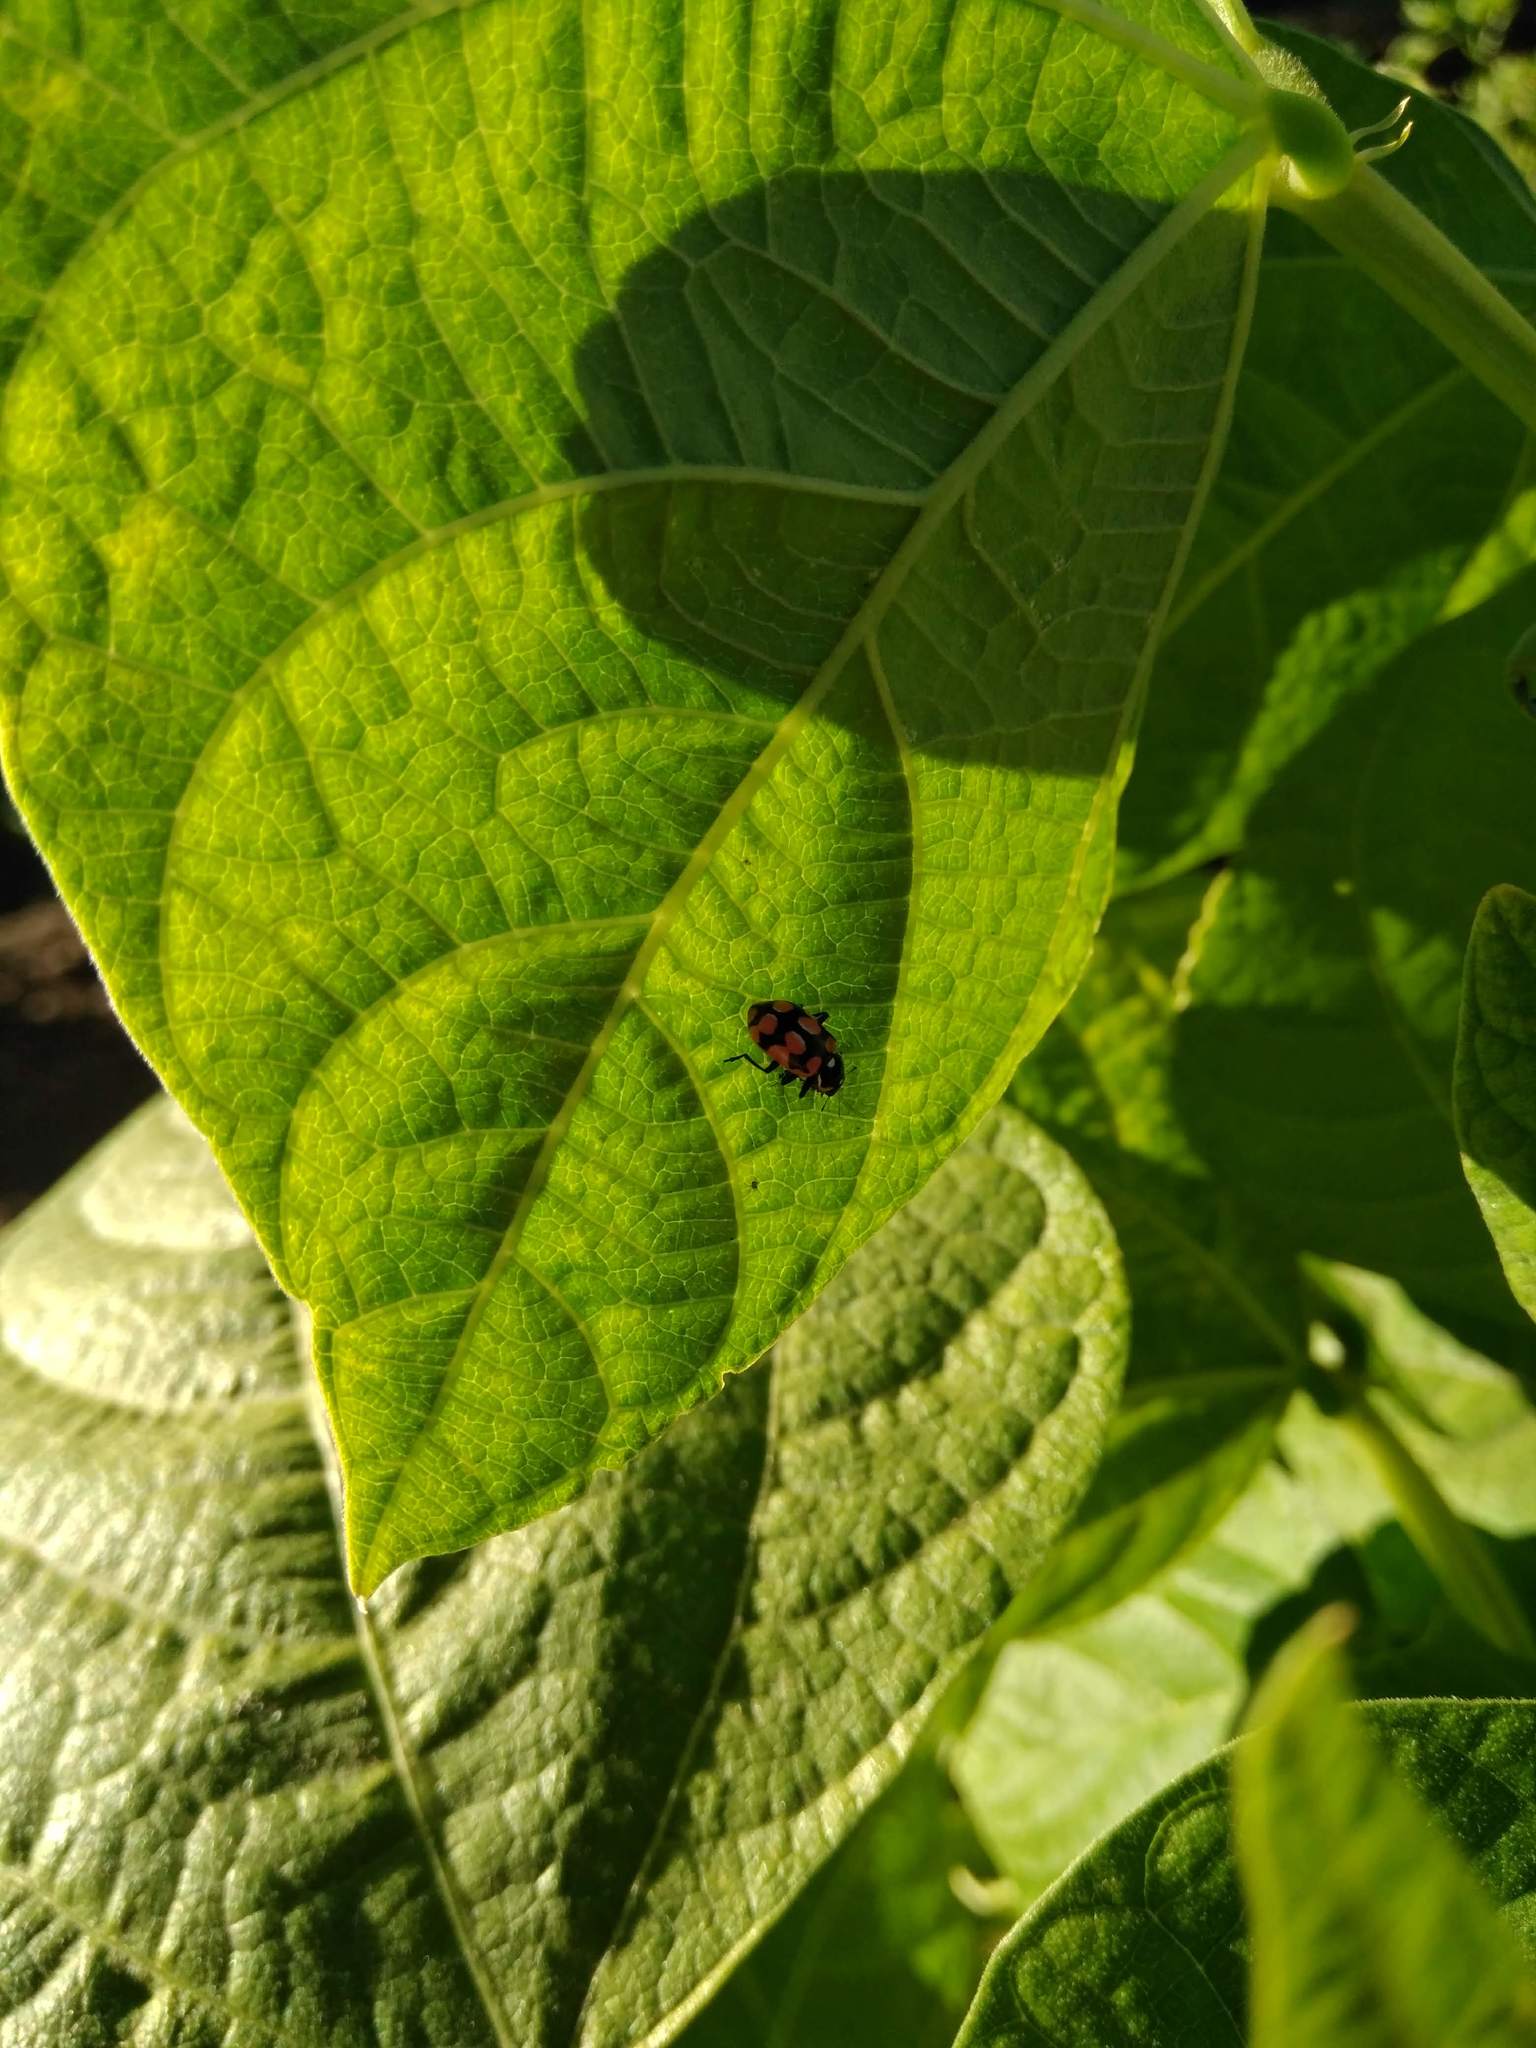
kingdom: Animalia
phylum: Arthropoda
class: Insecta
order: Coleoptera
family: Coccinellidae
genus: Eriopis
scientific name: Eriopis chilensis
